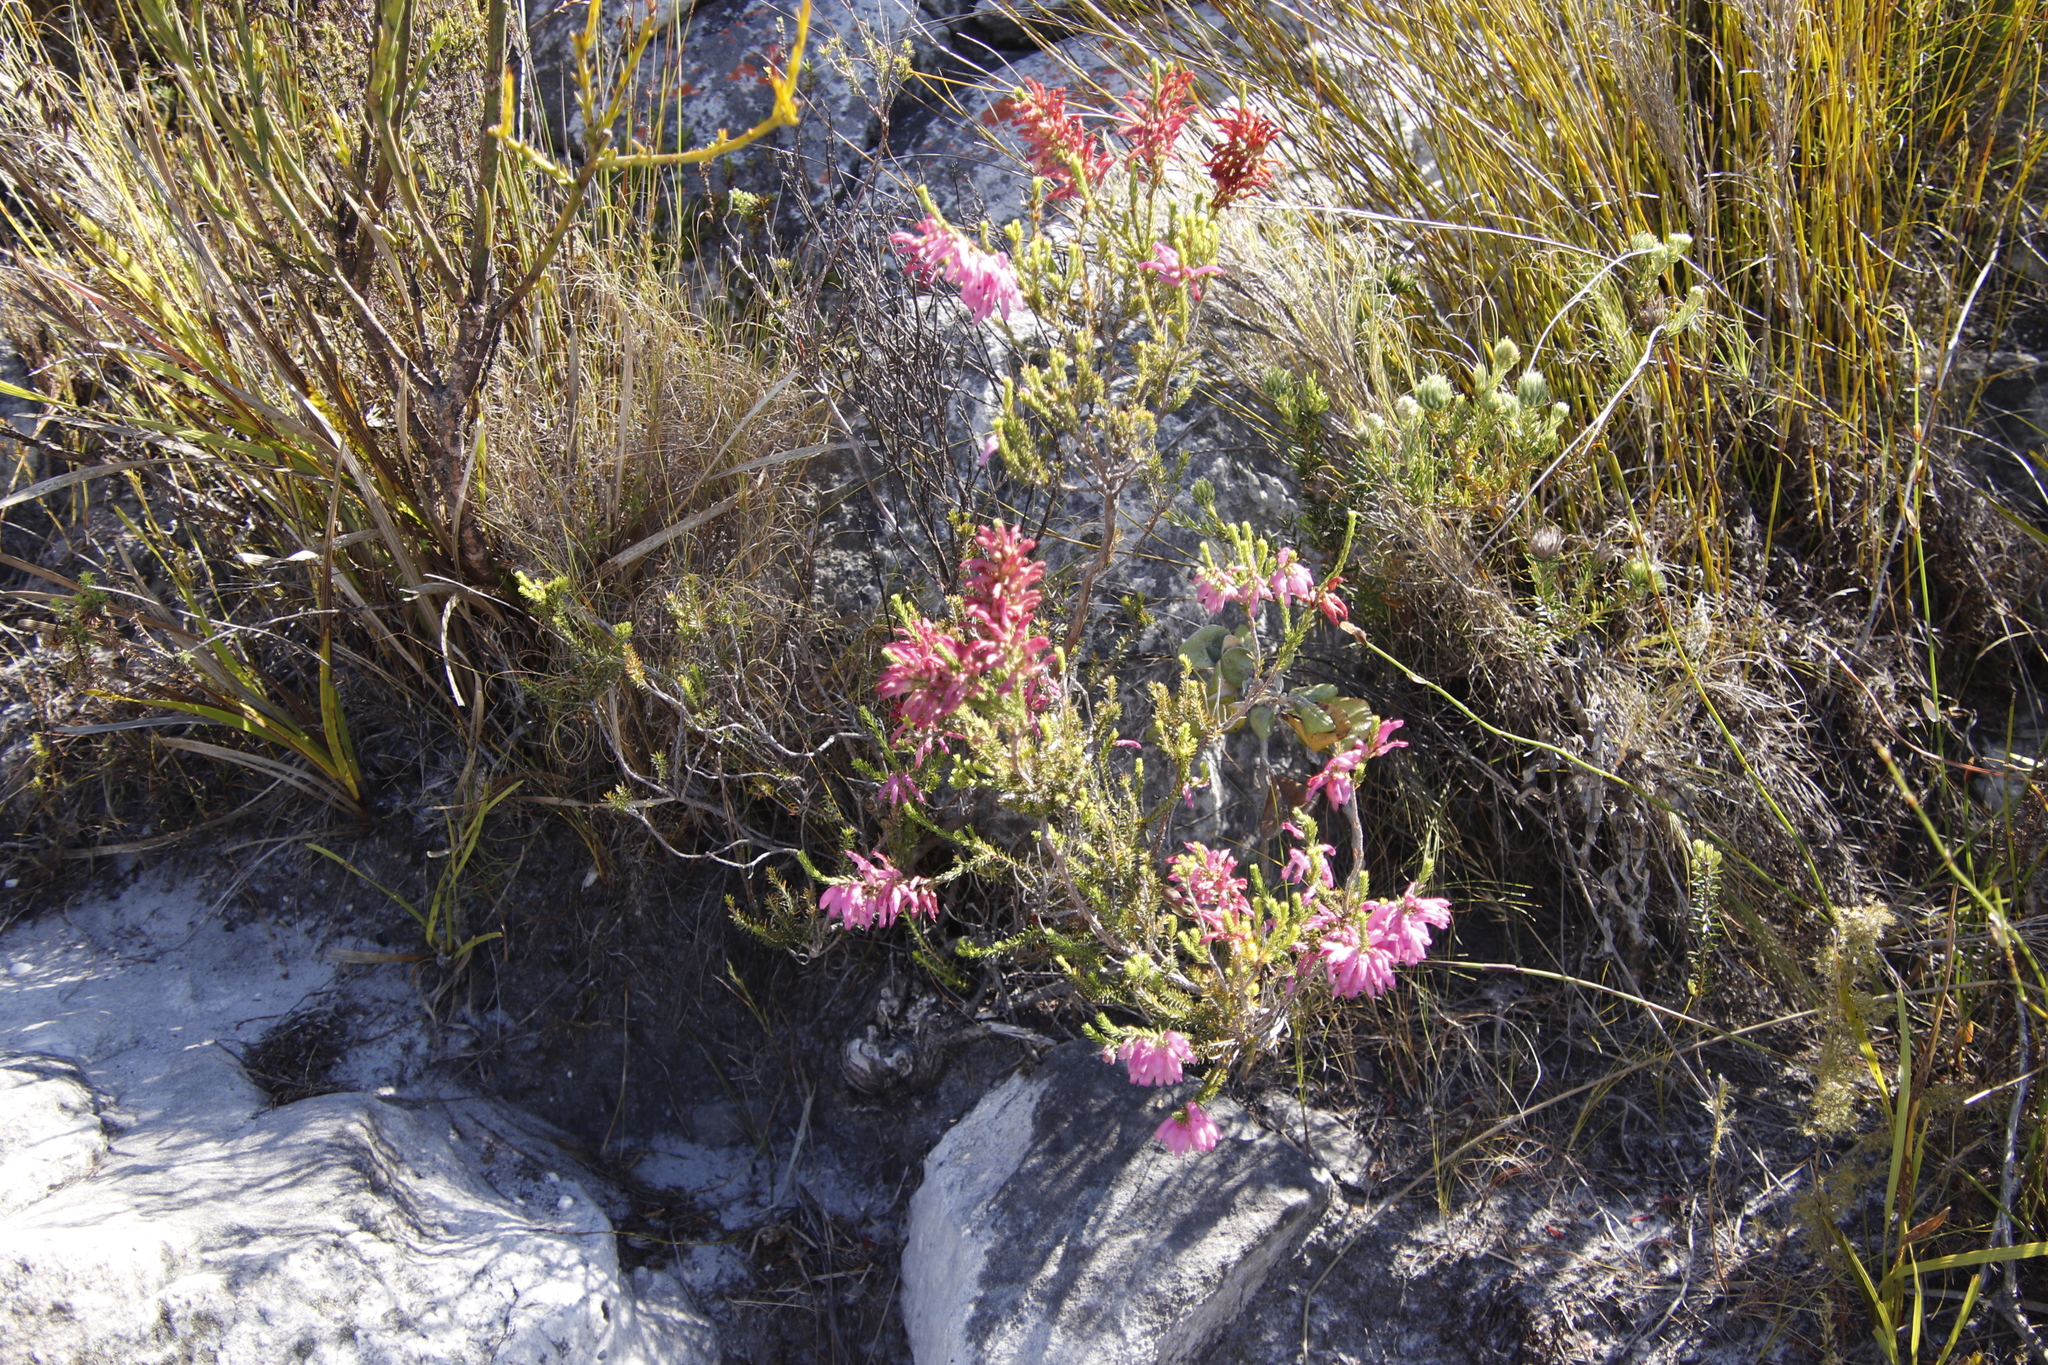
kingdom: Plantae
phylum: Tracheophyta
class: Magnoliopsida
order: Ericales
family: Ericaceae
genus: Erica
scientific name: Erica mammosa
